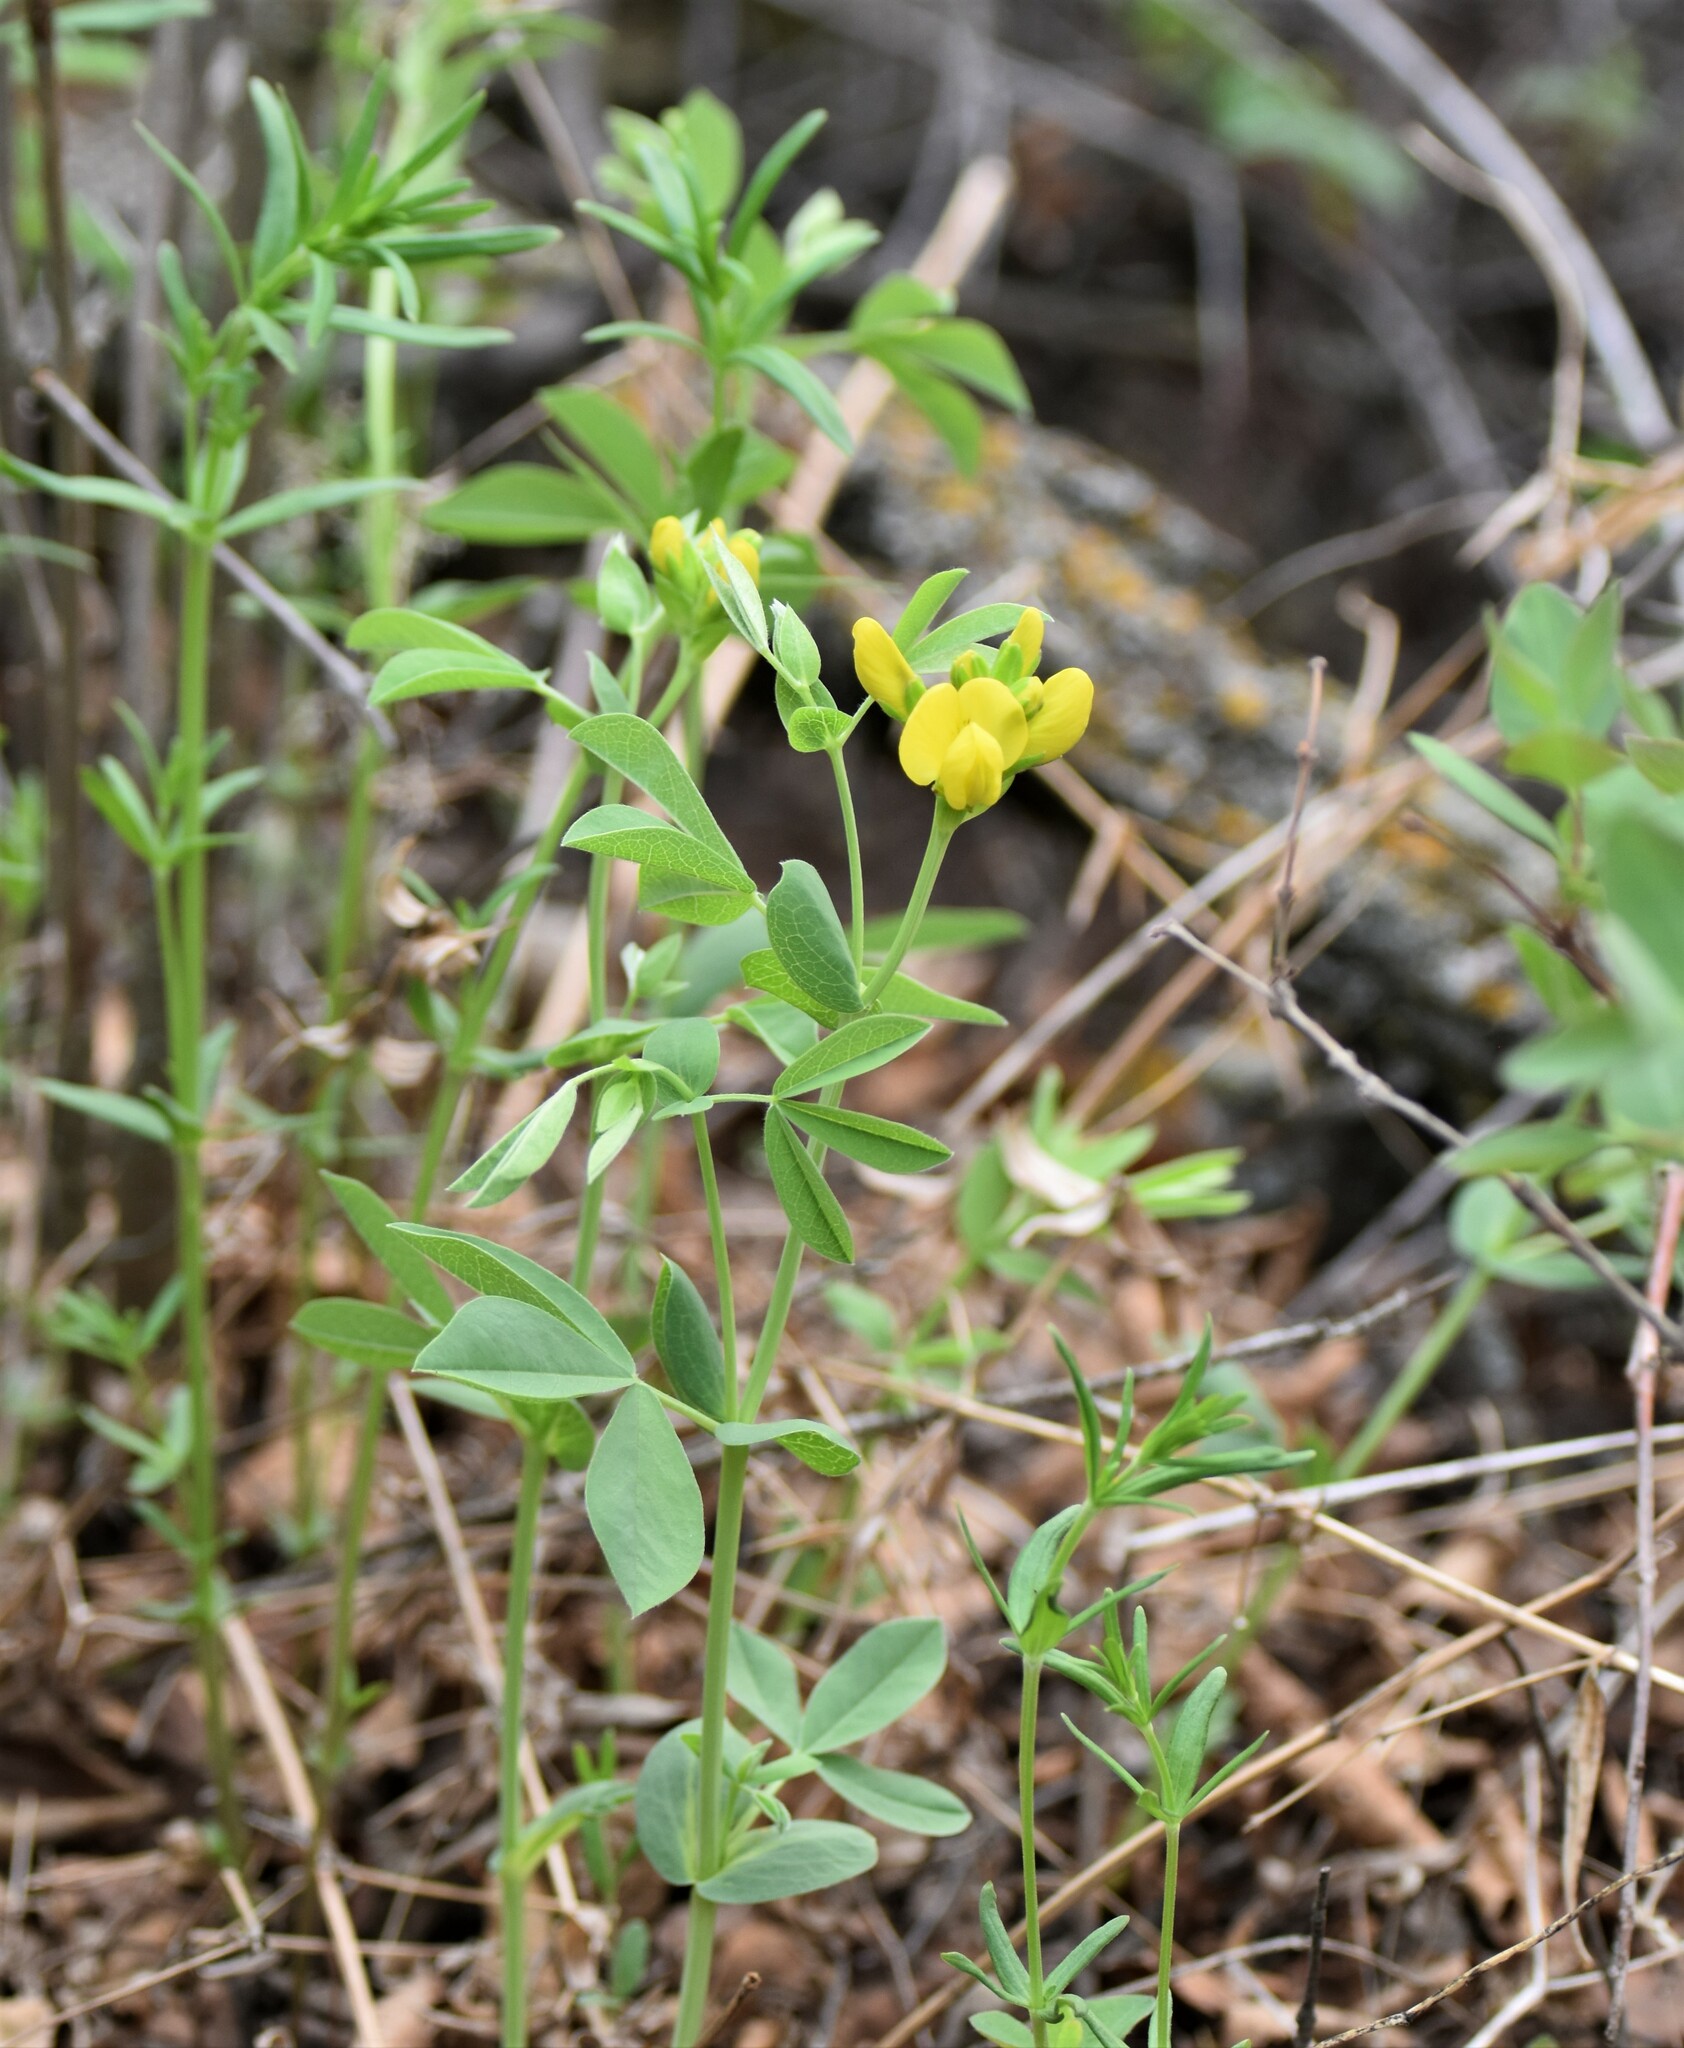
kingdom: Plantae
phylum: Tracheophyta
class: Magnoliopsida
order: Fabales
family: Fabaceae
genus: Thermopsis
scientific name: Thermopsis rhombifolia
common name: Circle-pod-pea
